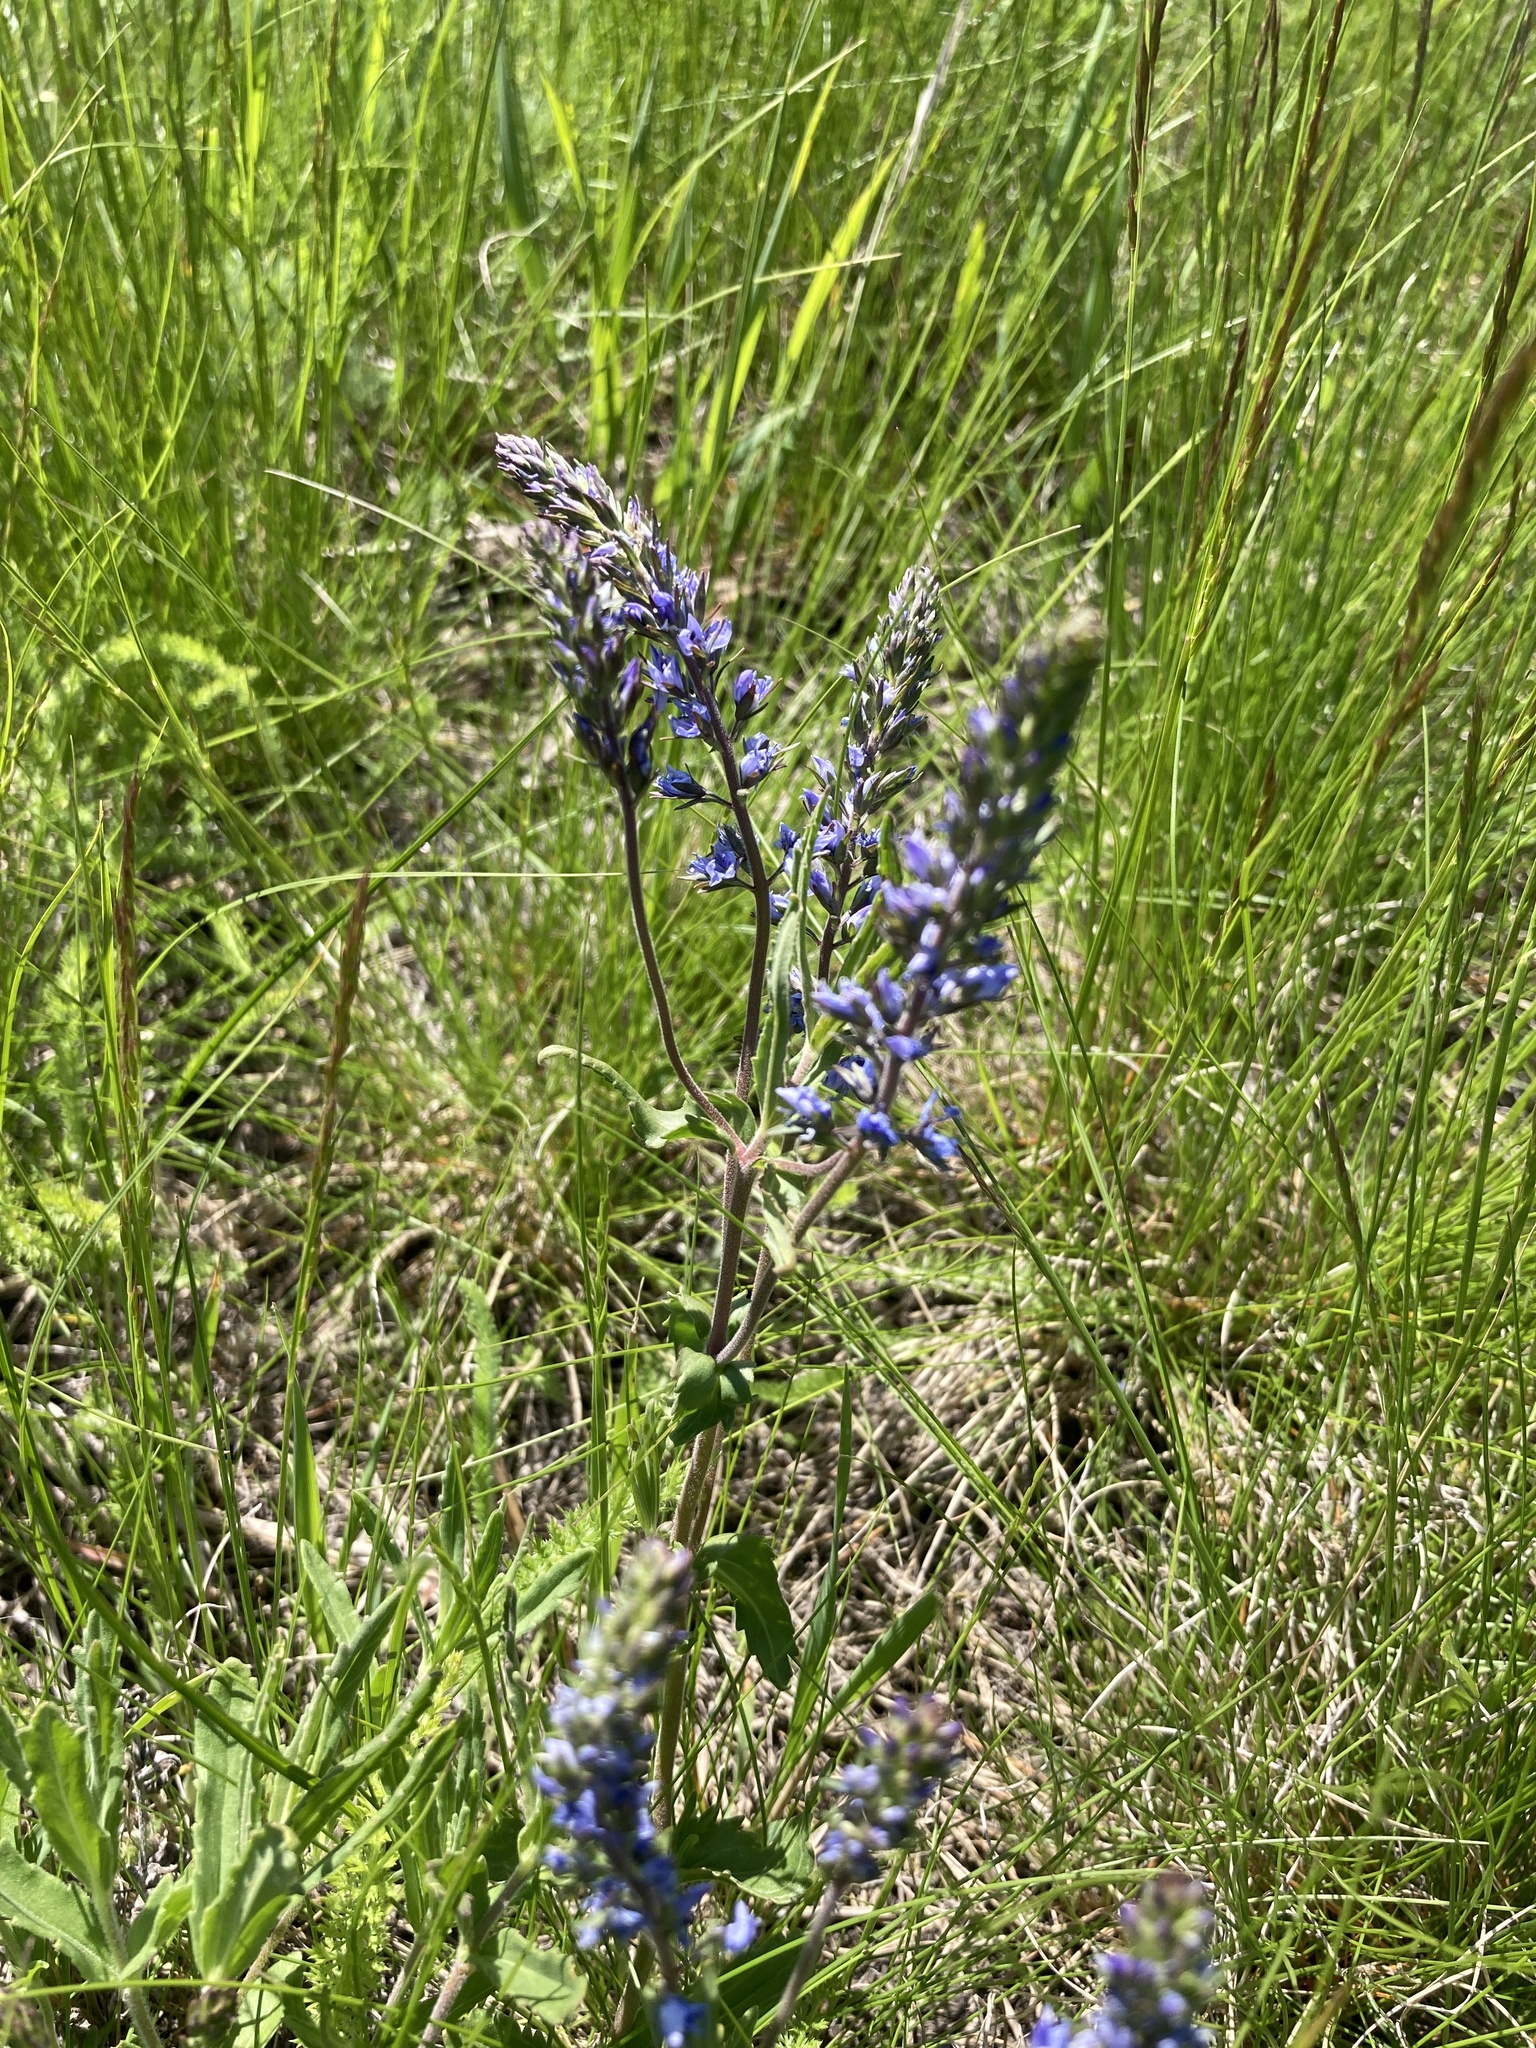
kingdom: Plantae
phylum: Tracheophyta
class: Magnoliopsida
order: Lamiales
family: Plantaginaceae
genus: Veronica
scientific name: Veronica prostrata
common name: Prostrate speedwell
